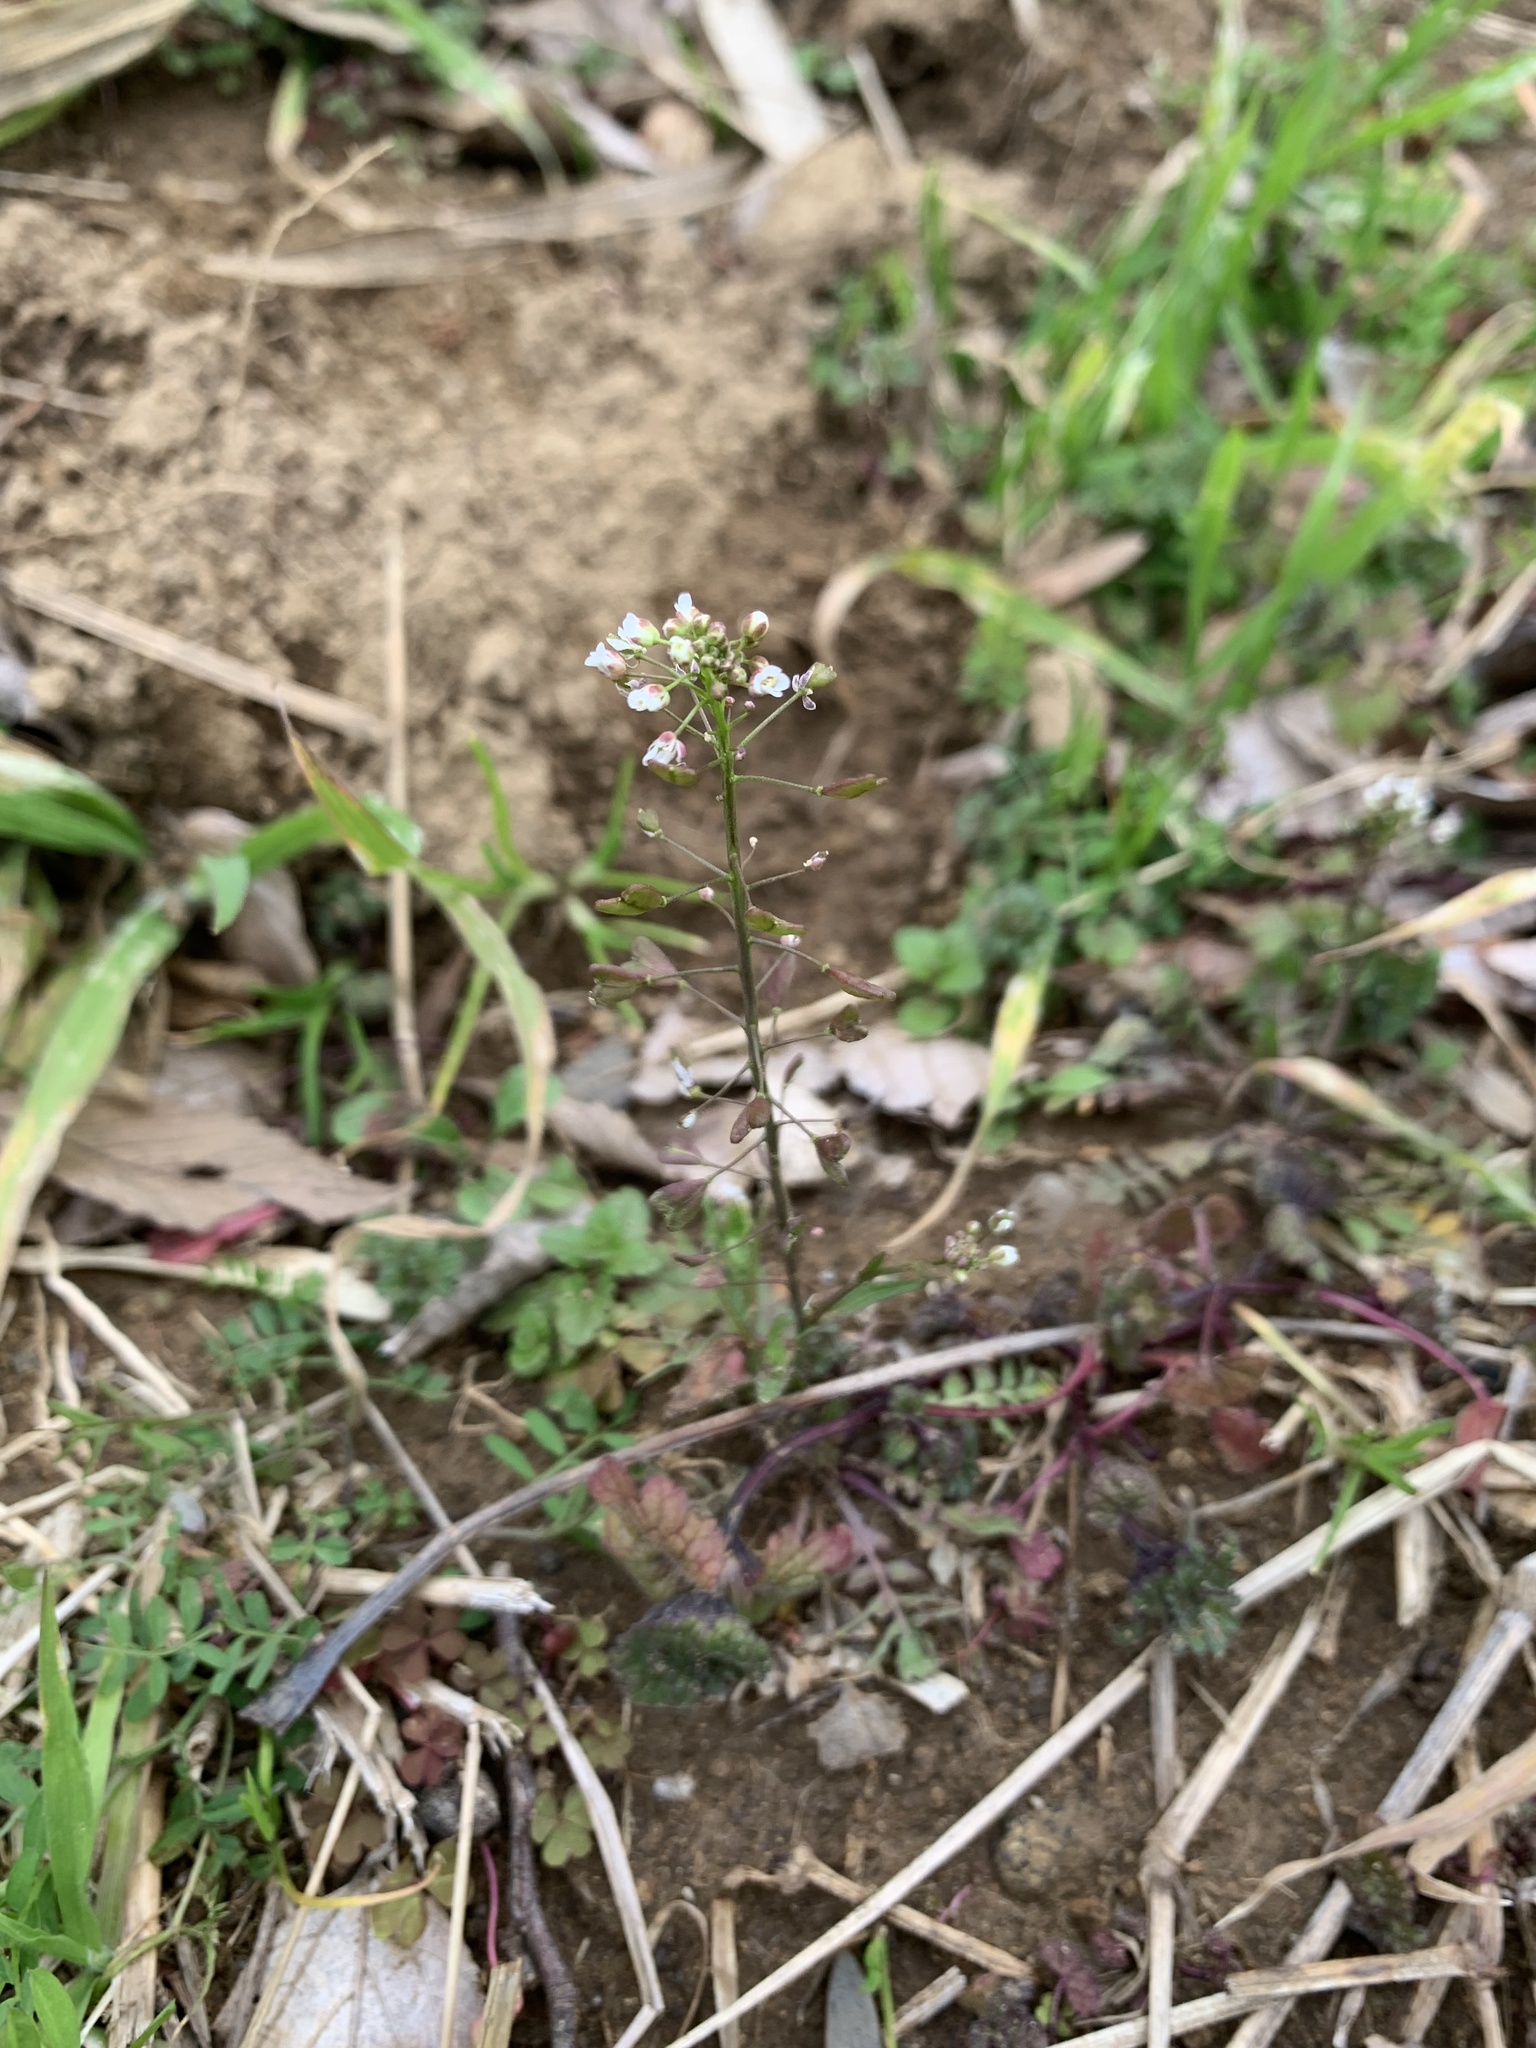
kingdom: Plantae
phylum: Tracheophyta
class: Magnoliopsida
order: Brassicales
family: Brassicaceae
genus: Capsella
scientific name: Capsella bursa-pastoris
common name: Shepherd's purse
